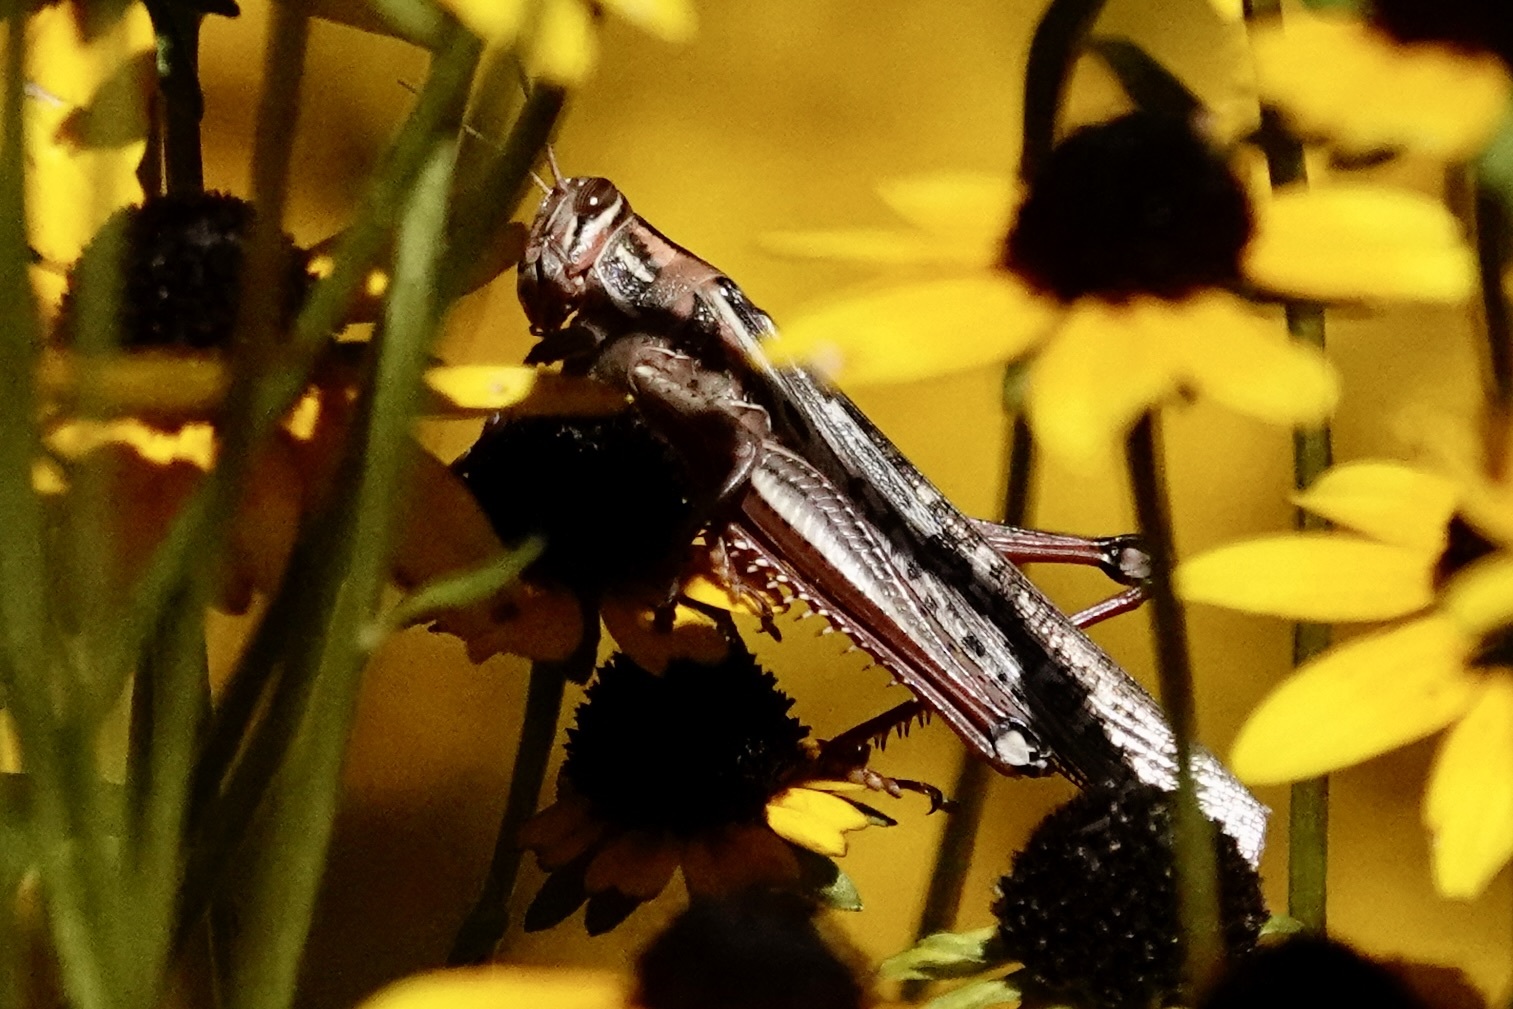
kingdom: Animalia
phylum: Arthropoda
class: Insecta
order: Orthoptera
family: Acrididae
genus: Schistocerca
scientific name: Schistocerca americana
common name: American bird locust
